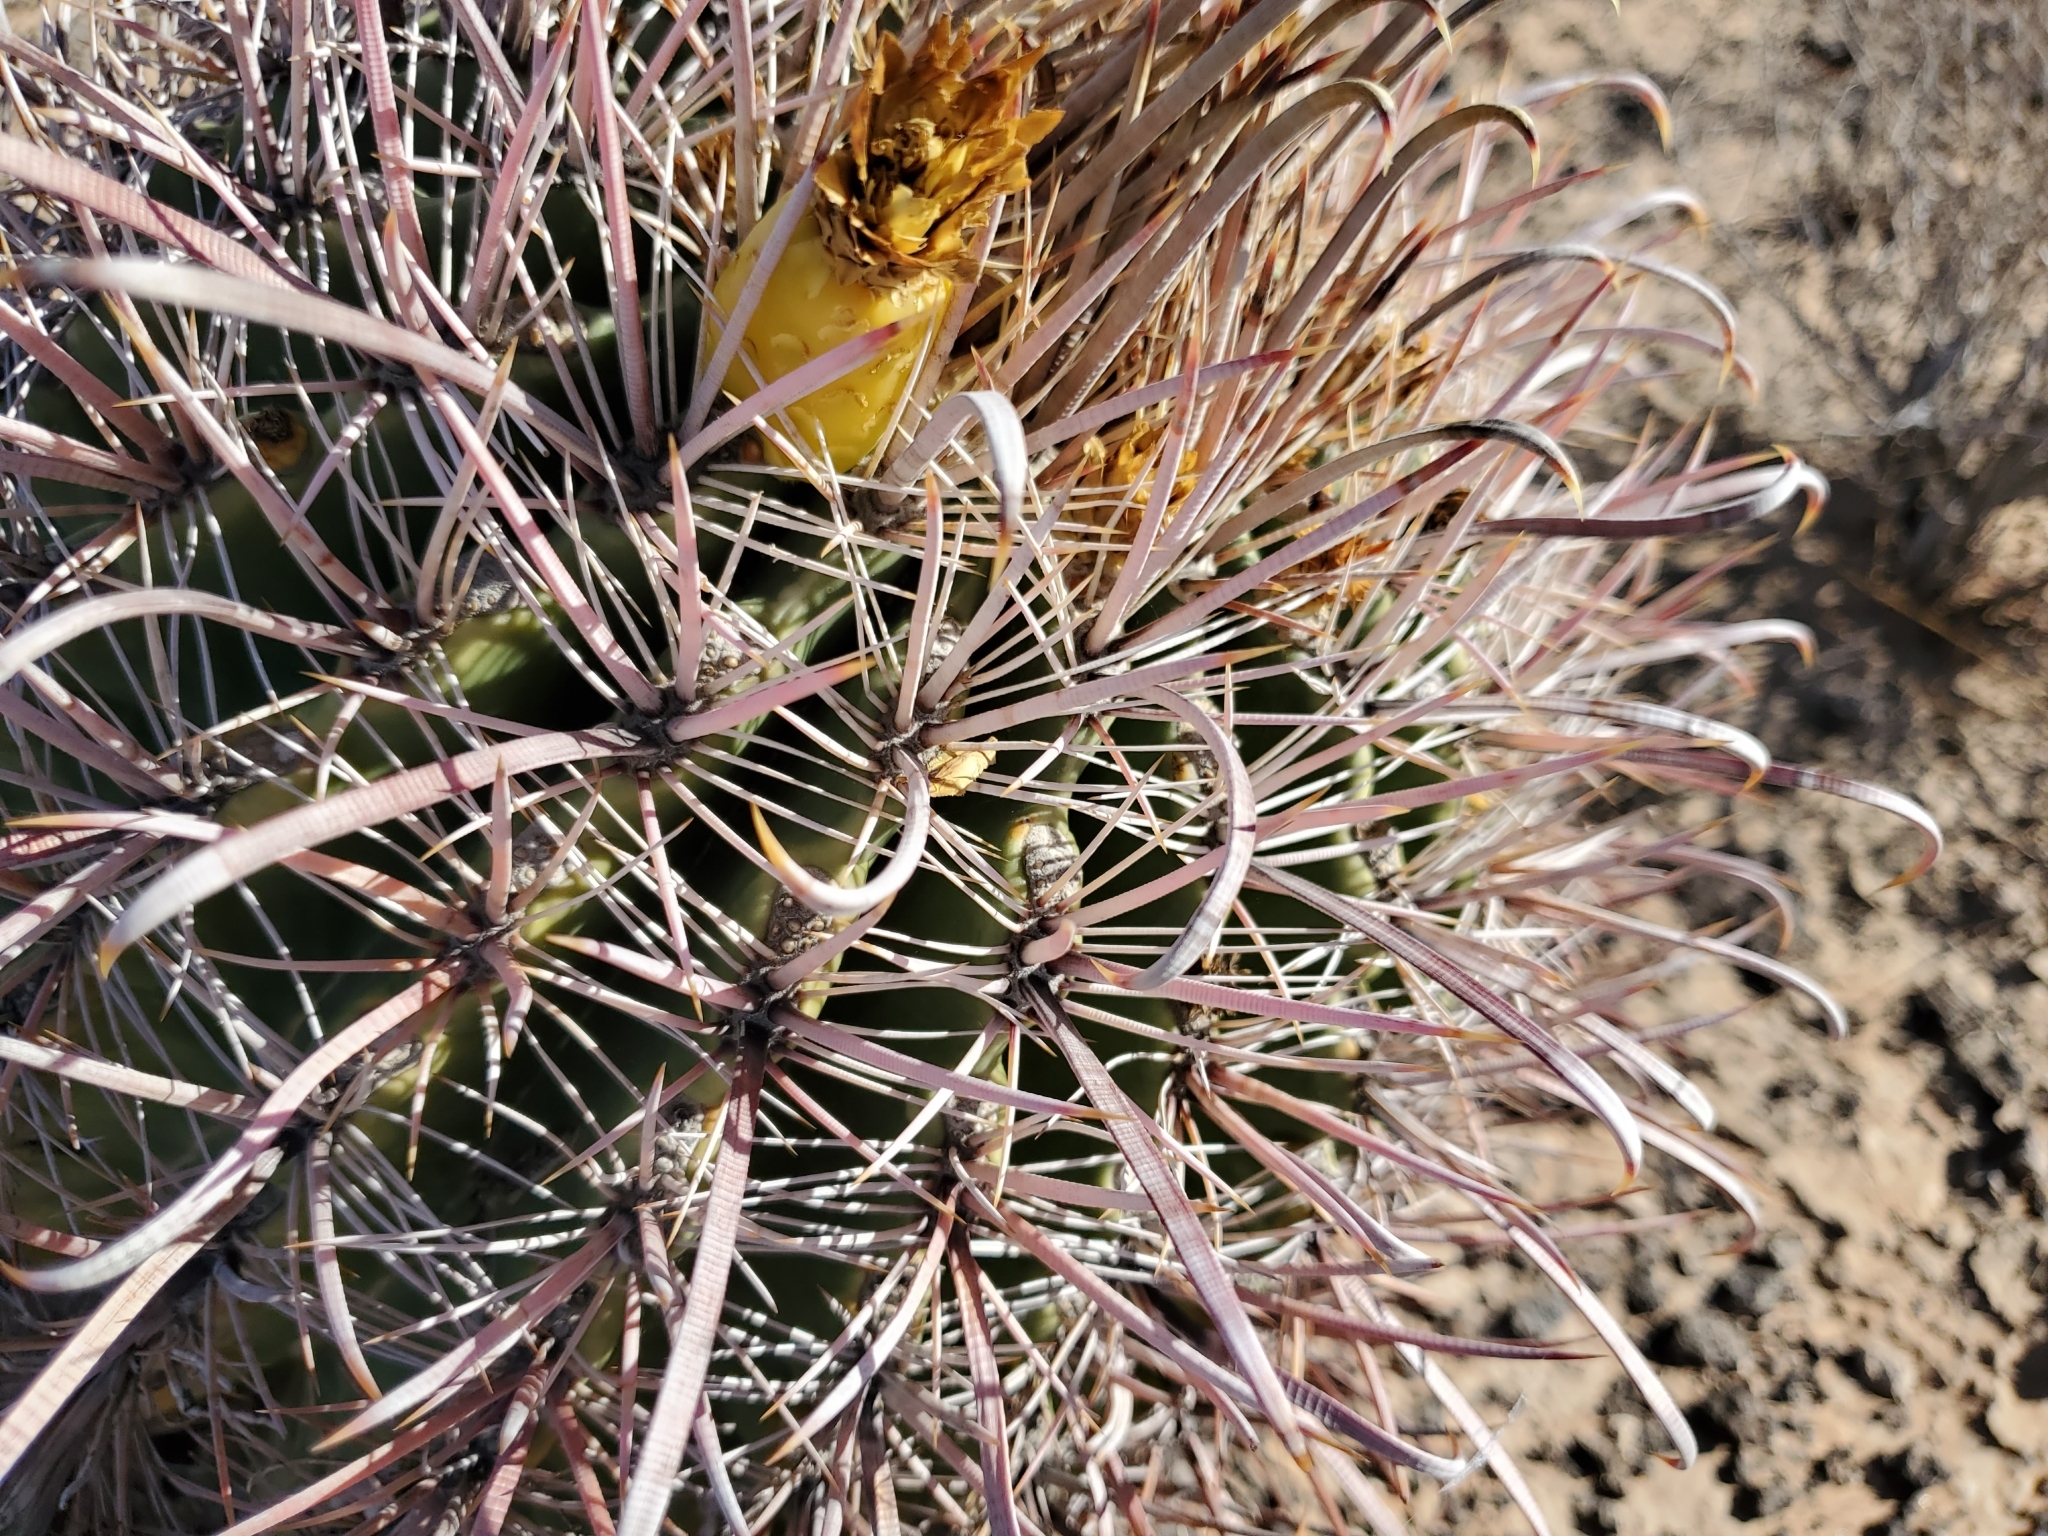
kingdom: Plantae
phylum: Tracheophyta
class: Magnoliopsida
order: Caryophyllales
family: Cactaceae
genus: Ferocactus
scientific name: Ferocactus cylindraceus
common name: California barrel cactus
